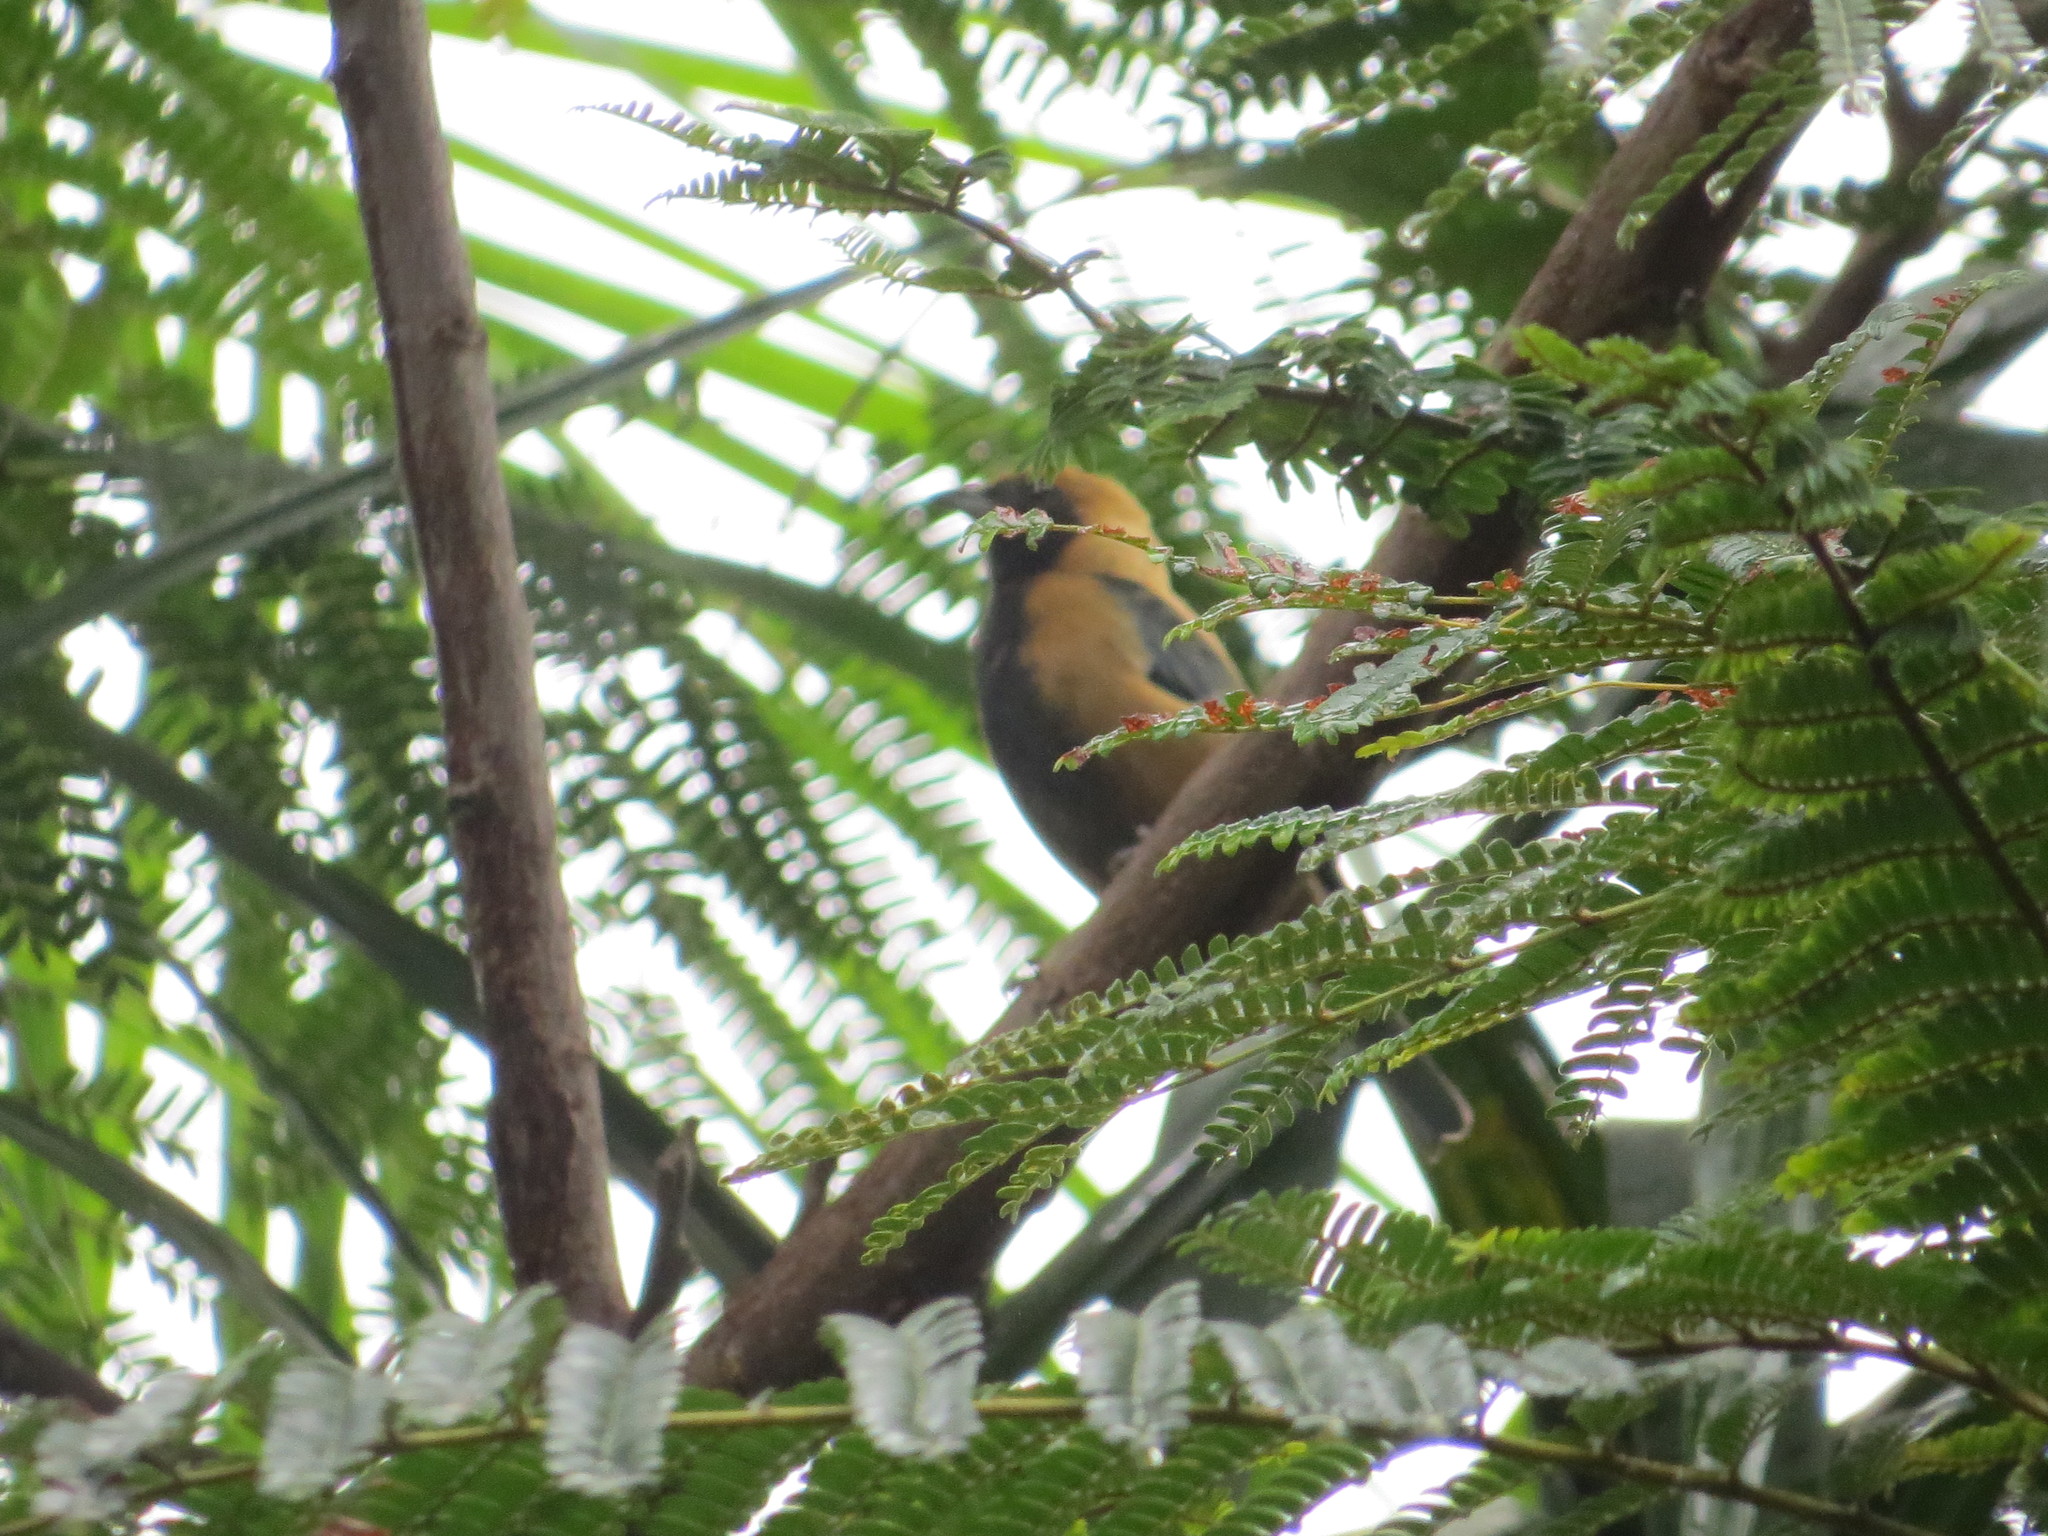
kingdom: Animalia
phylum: Chordata
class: Aves
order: Passeriformes
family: Thraupidae
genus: Stilpnia
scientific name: Stilpnia cayana
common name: Burnished-buff tanager
